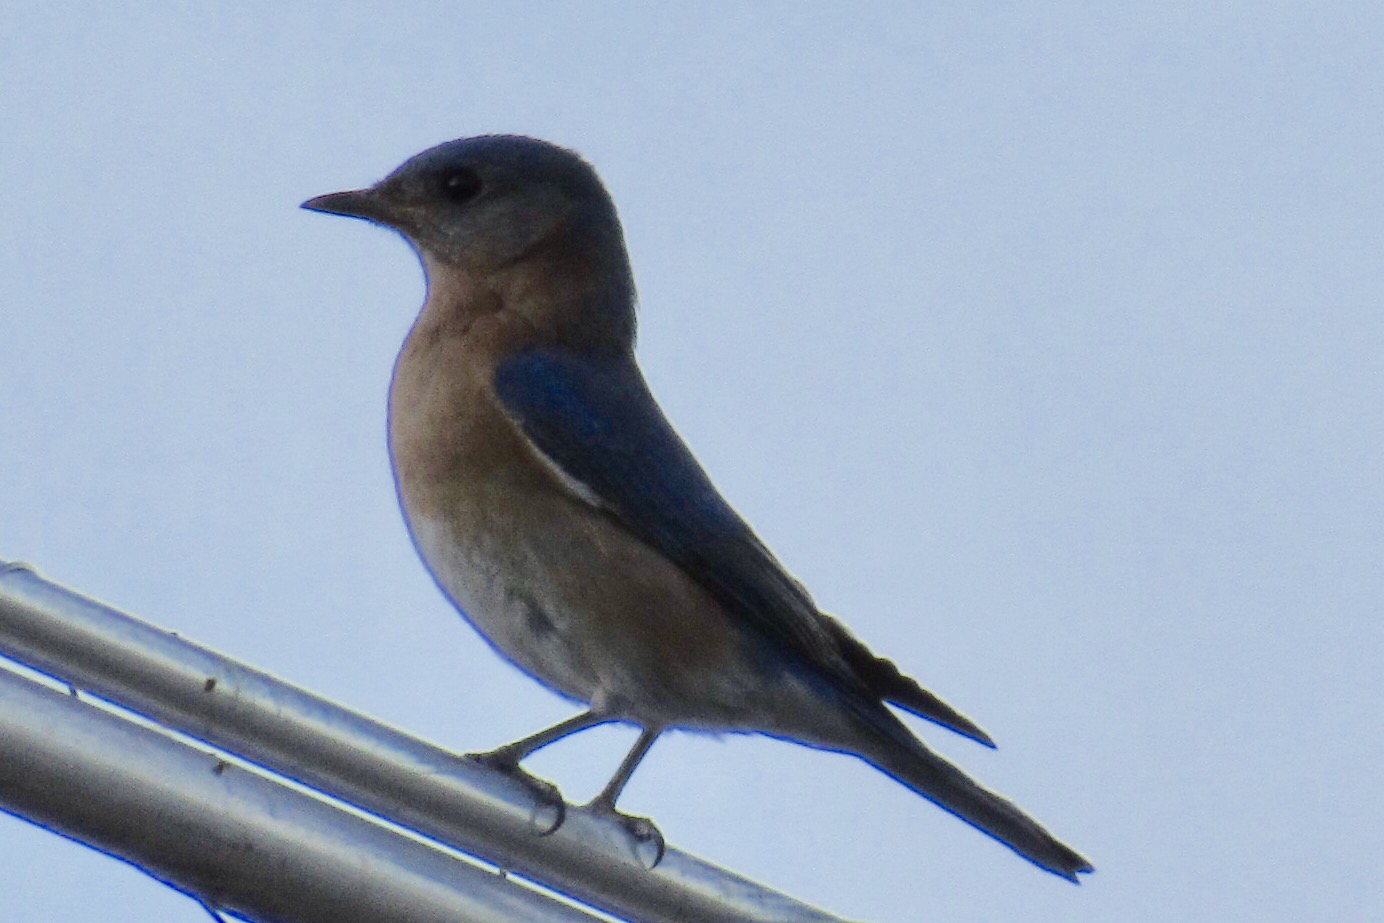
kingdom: Animalia
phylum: Chordata
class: Aves
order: Passeriformes
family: Turdidae
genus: Sialia
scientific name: Sialia mexicana
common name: Western bluebird
